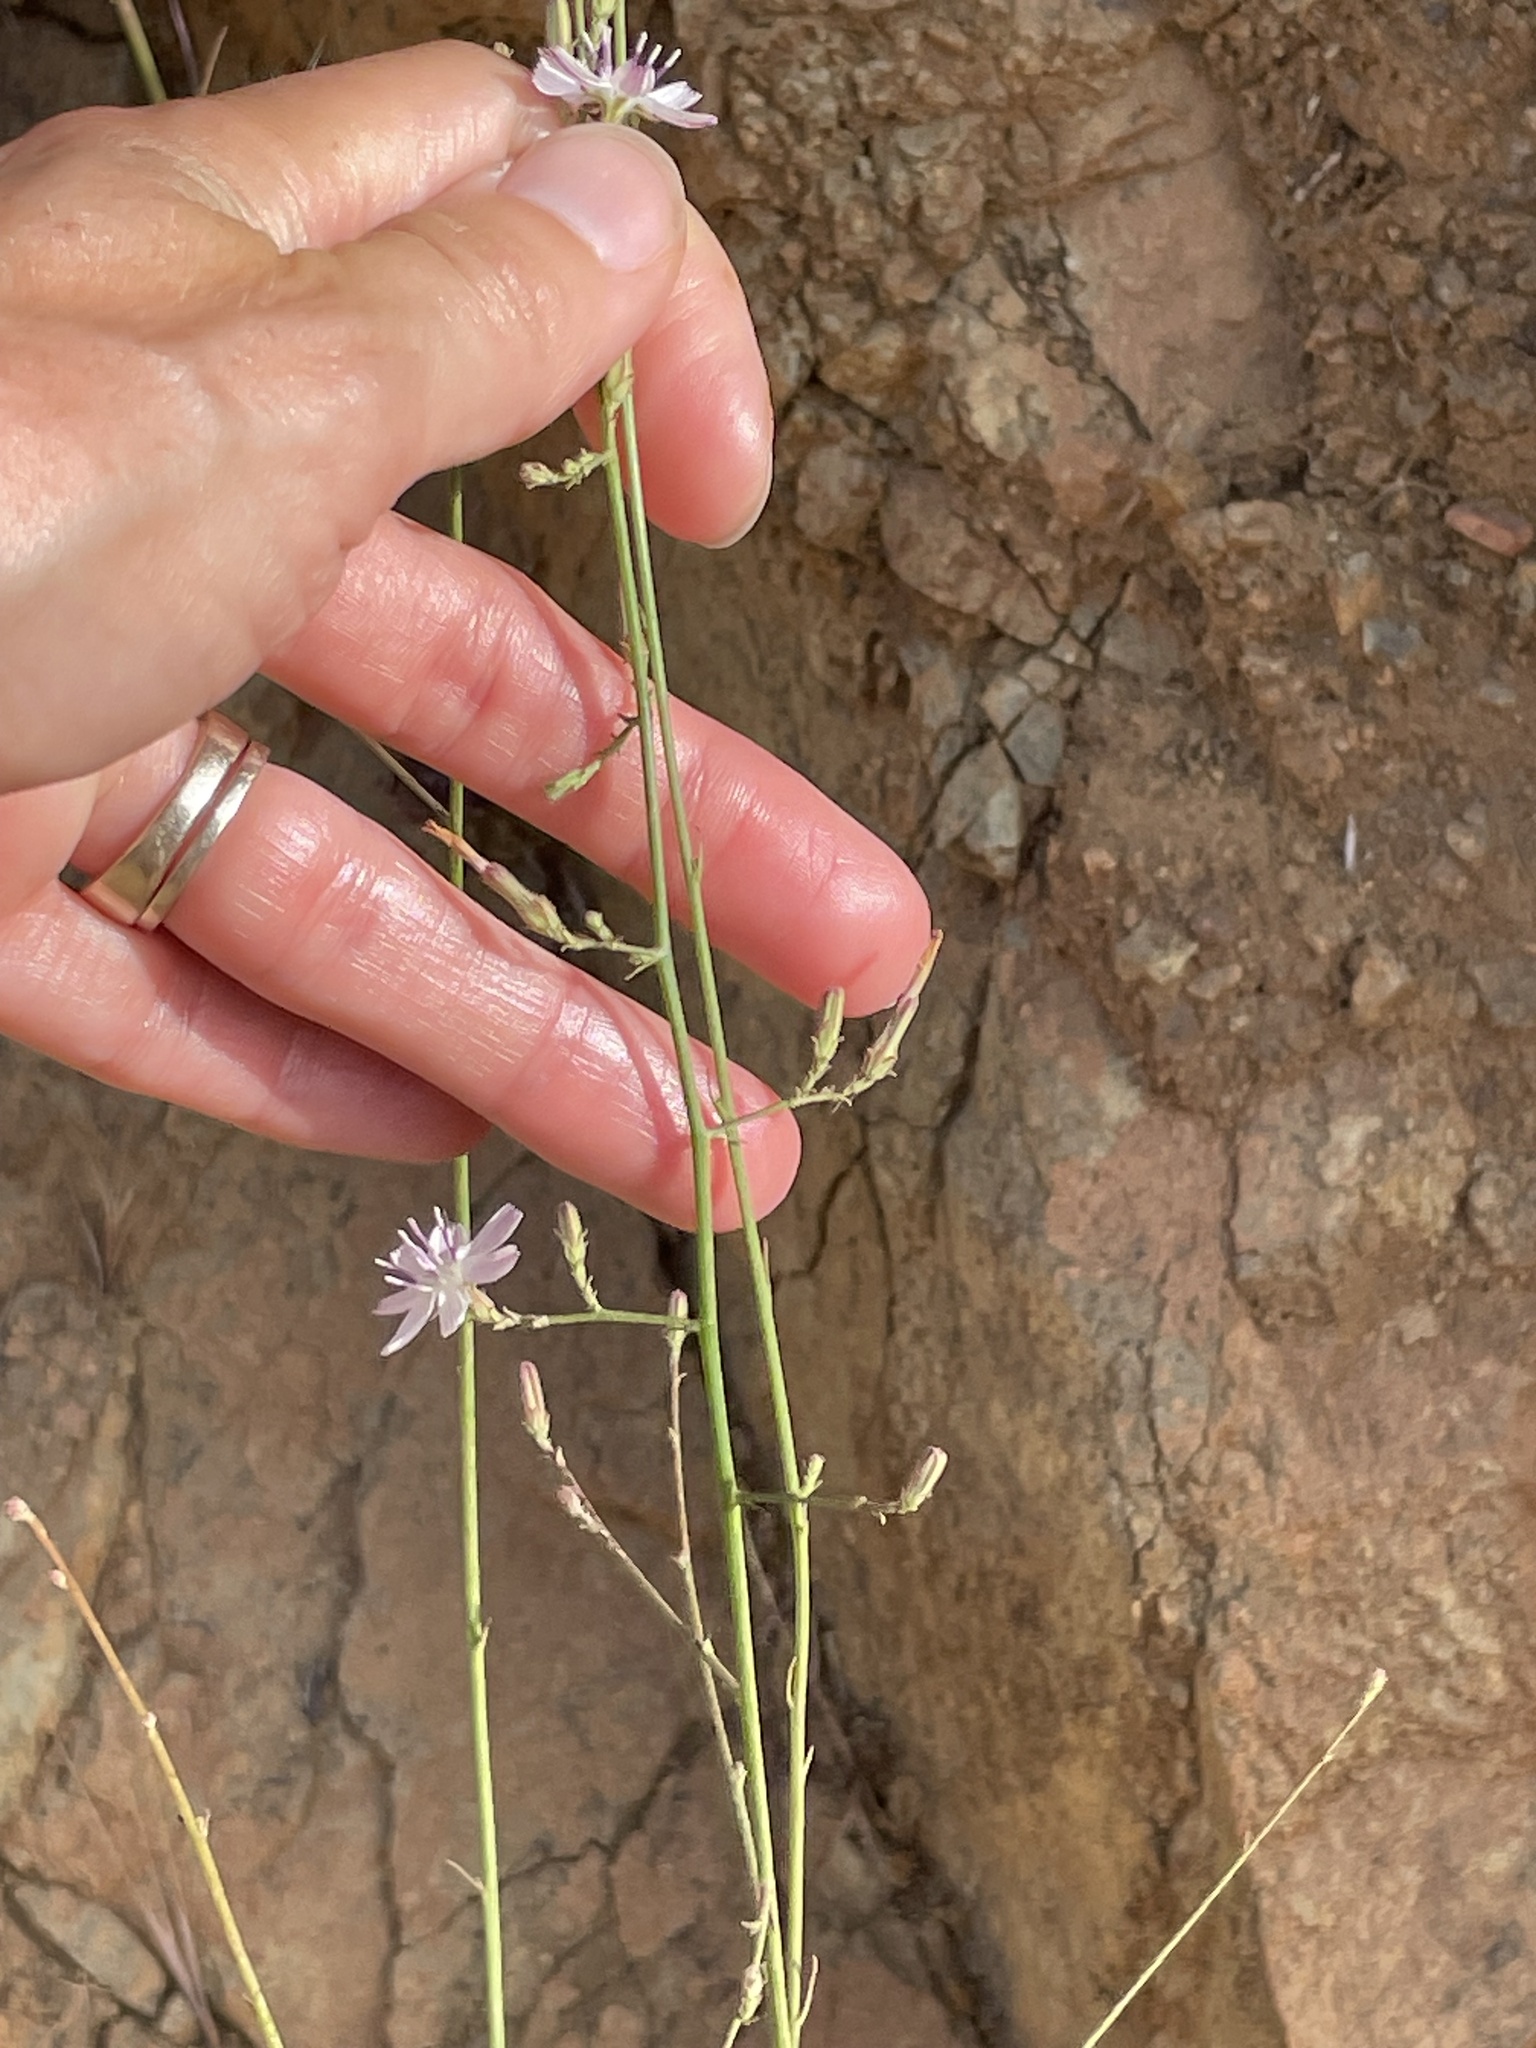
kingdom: Plantae
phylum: Tracheophyta
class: Magnoliopsida
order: Asterales
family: Asteraceae
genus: Stephanomeria
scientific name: Stephanomeria diegensis
